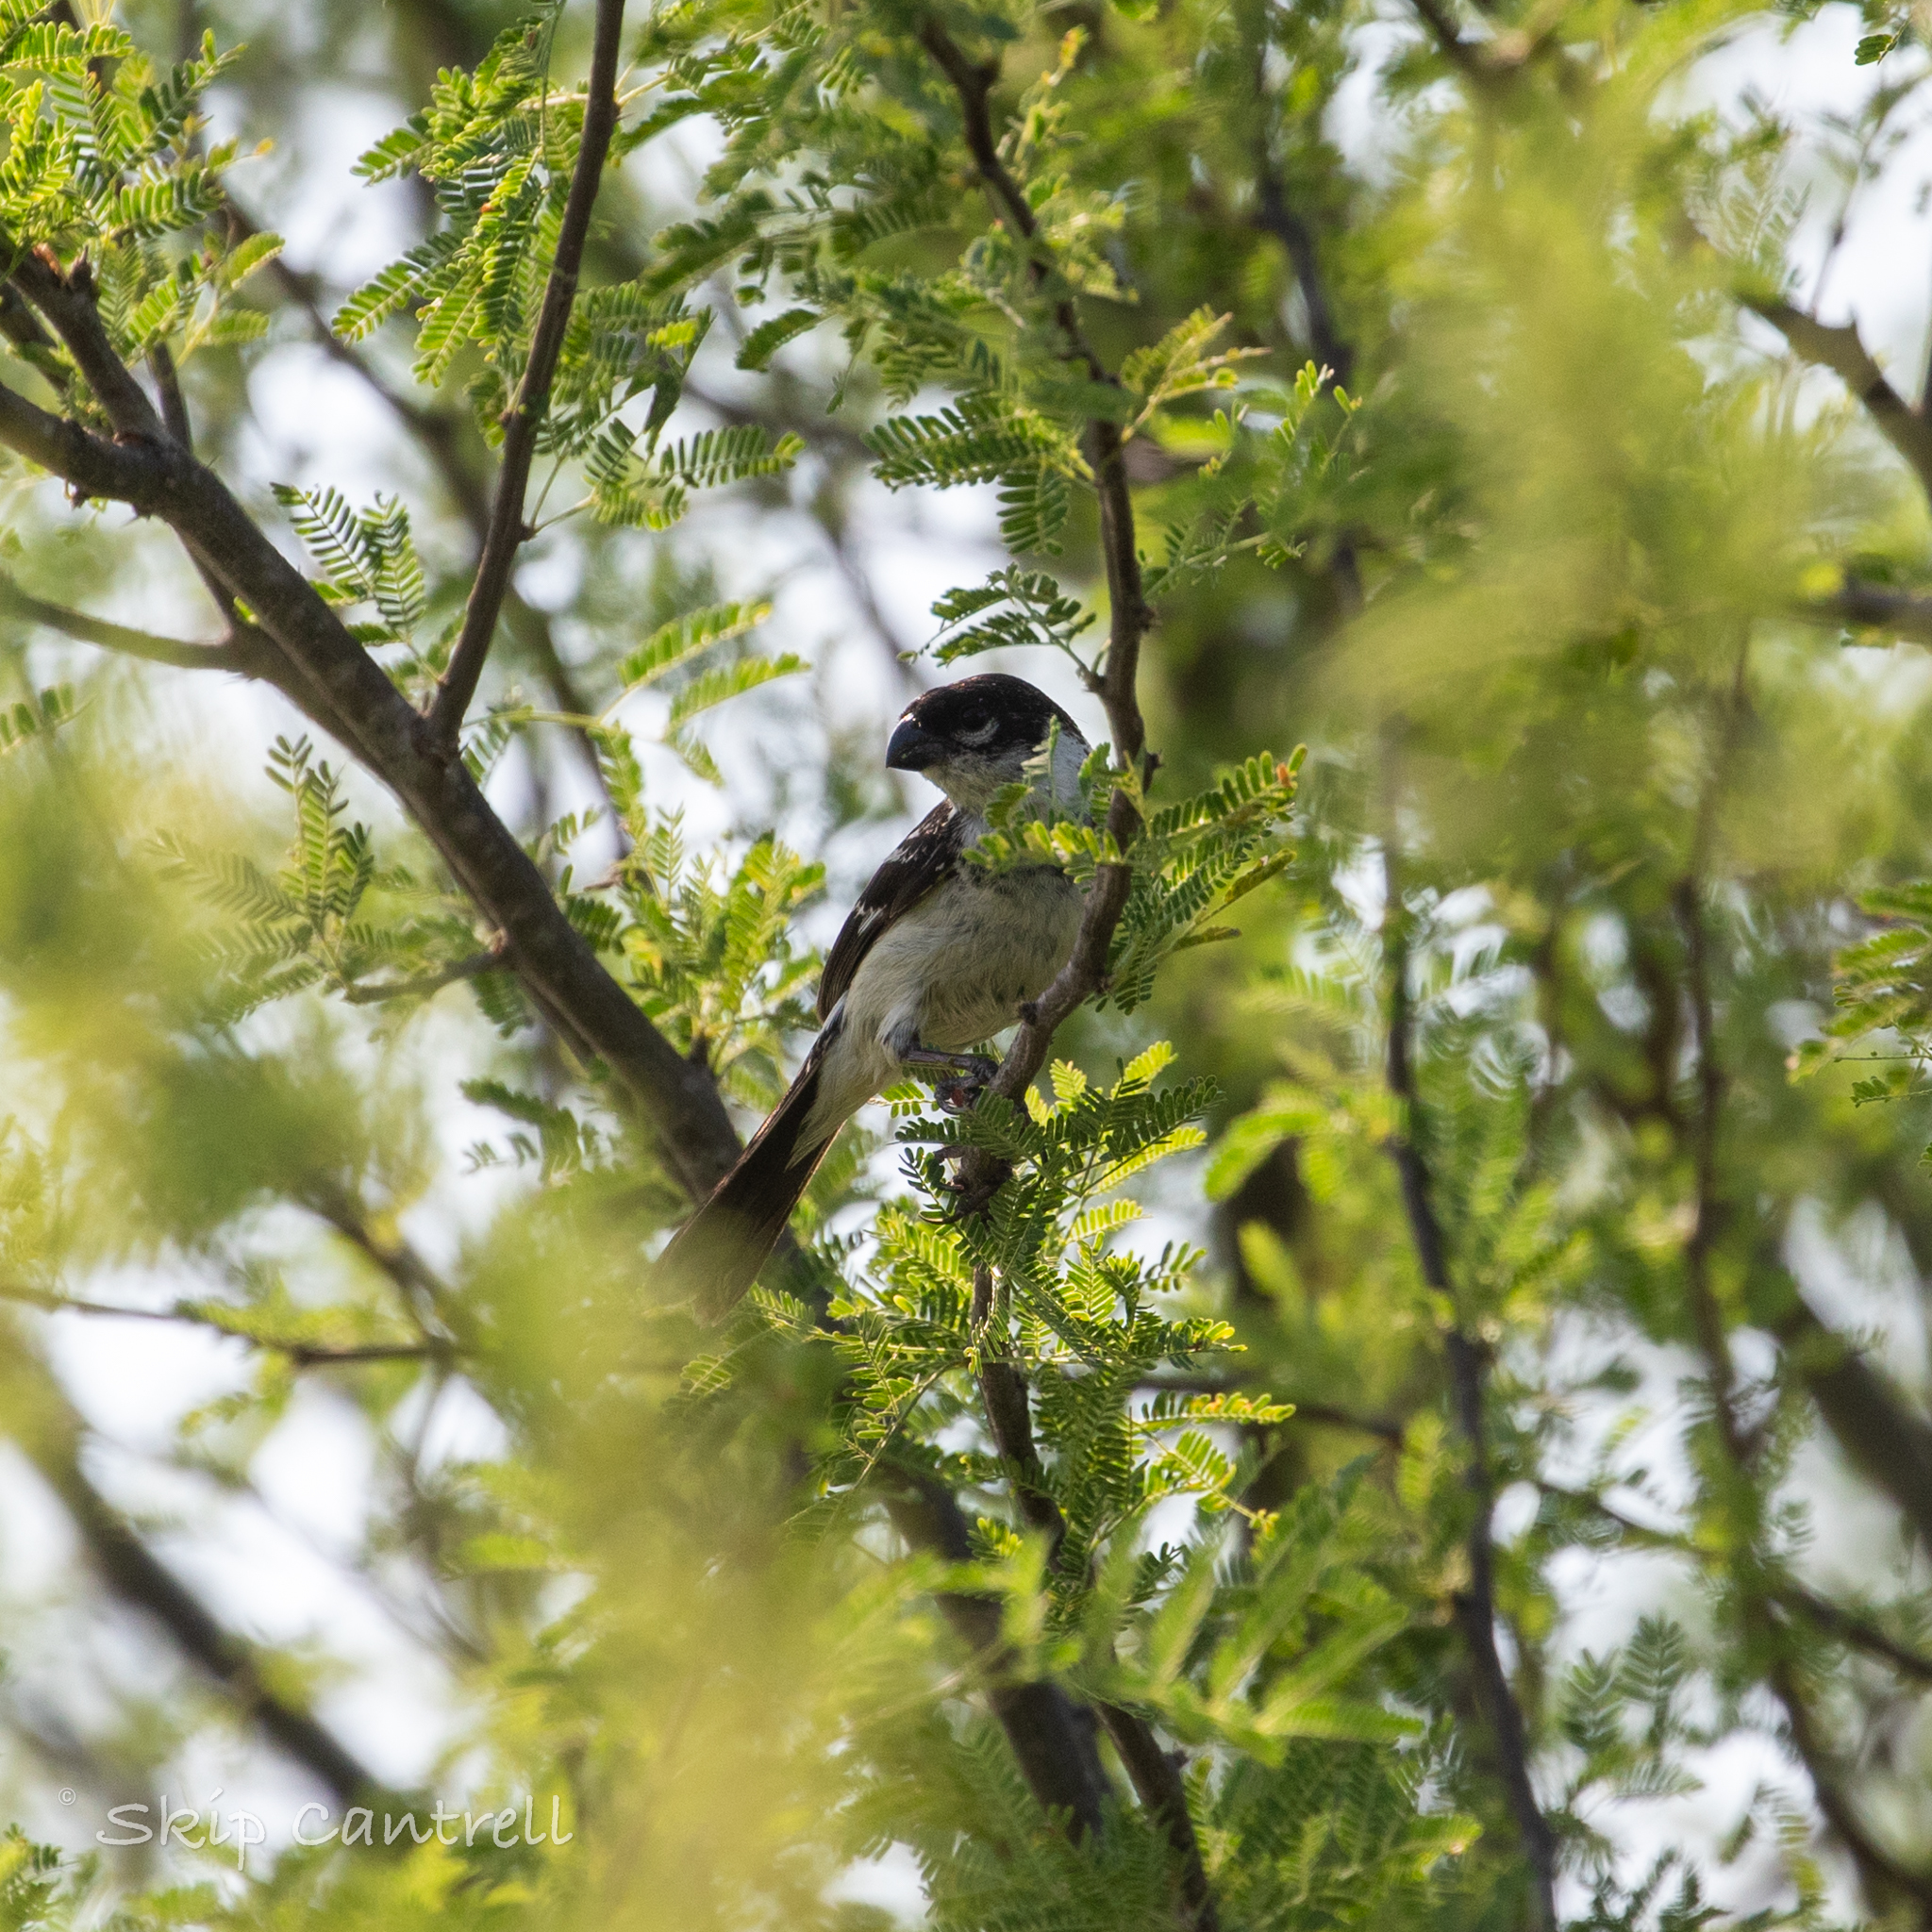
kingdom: Animalia
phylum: Chordata
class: Aves
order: Passeriformes
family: Thraupidae
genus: Sporophila
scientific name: Sporophila morelleti
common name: Morelet's seedeater
